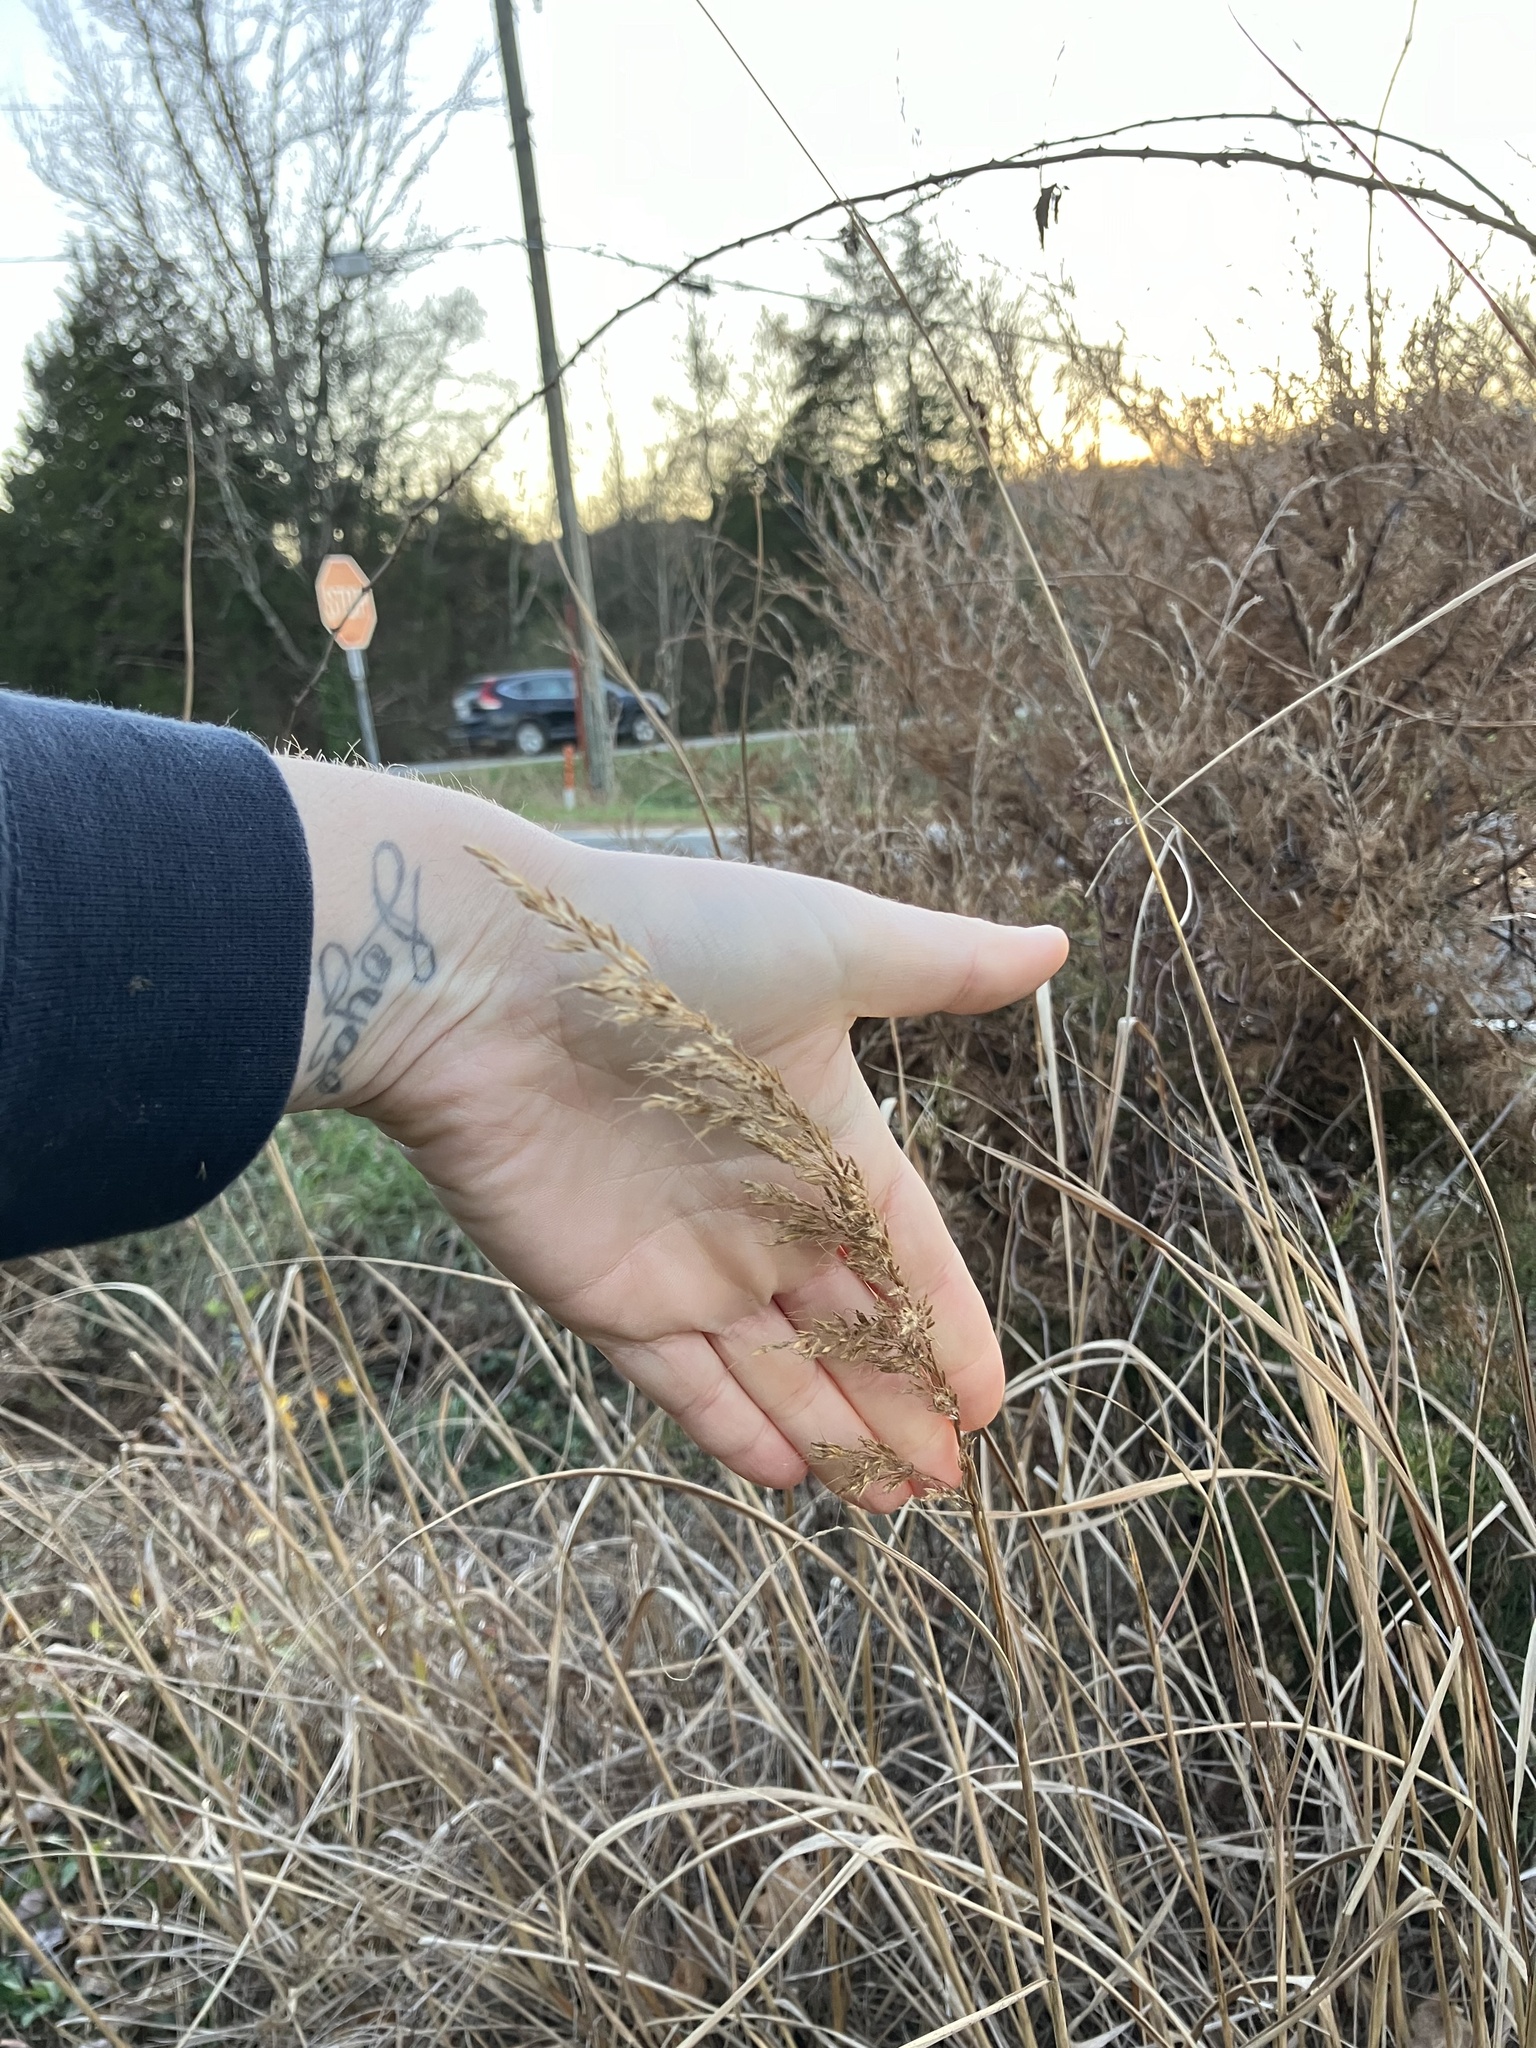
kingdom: Plantae
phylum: Tracheophyta
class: Liliopsida
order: Poales
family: Poaceae
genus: Sorghastrum
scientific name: Sorghastrum nutans
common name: Indian grass
